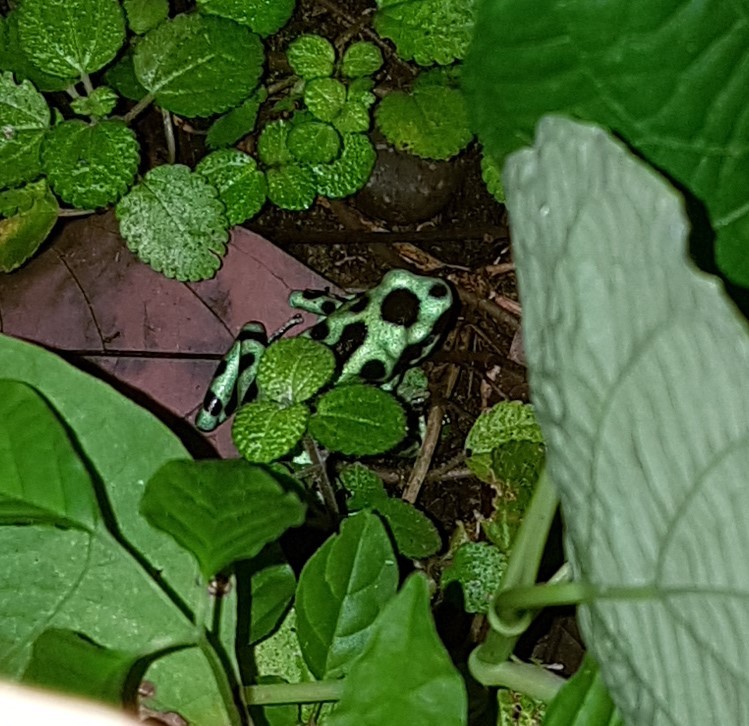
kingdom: Animalia
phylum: Chordata
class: Amphibia
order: Anura
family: Dendrobatidae
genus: Dendrobates
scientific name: Dendrobates auratus
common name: Green and black poison dart frog
